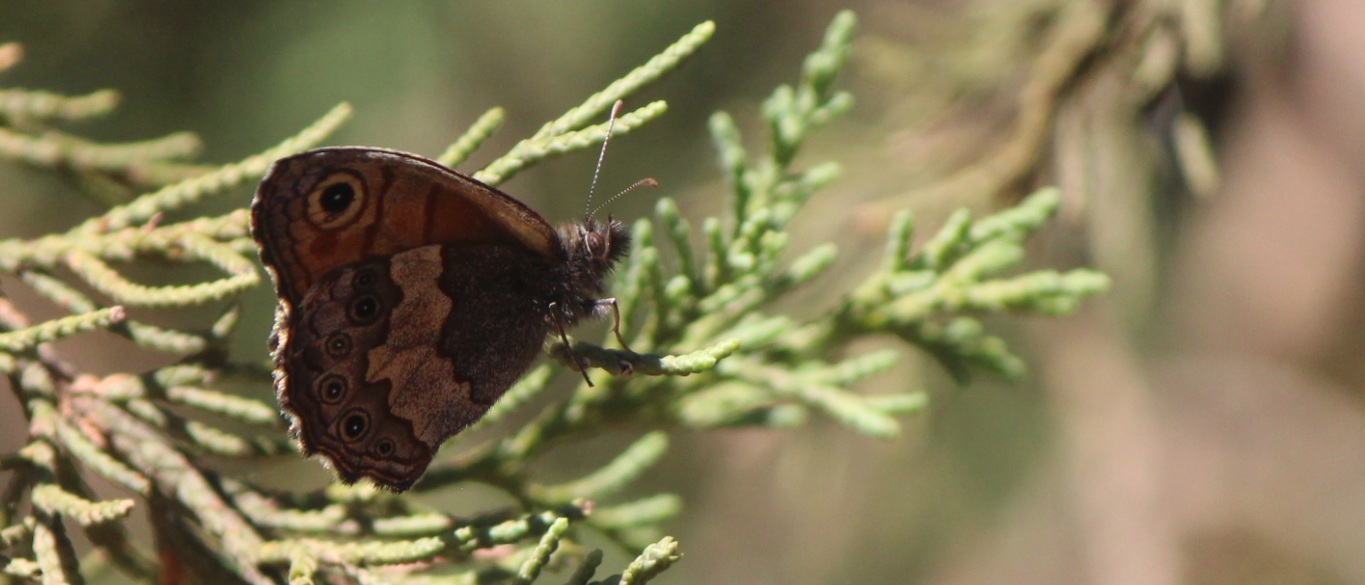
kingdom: Animalia
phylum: Arthropoda
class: Insecta
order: Lepidoptera
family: Nymphalidae
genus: Paramecera
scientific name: Paramecera xicaque
